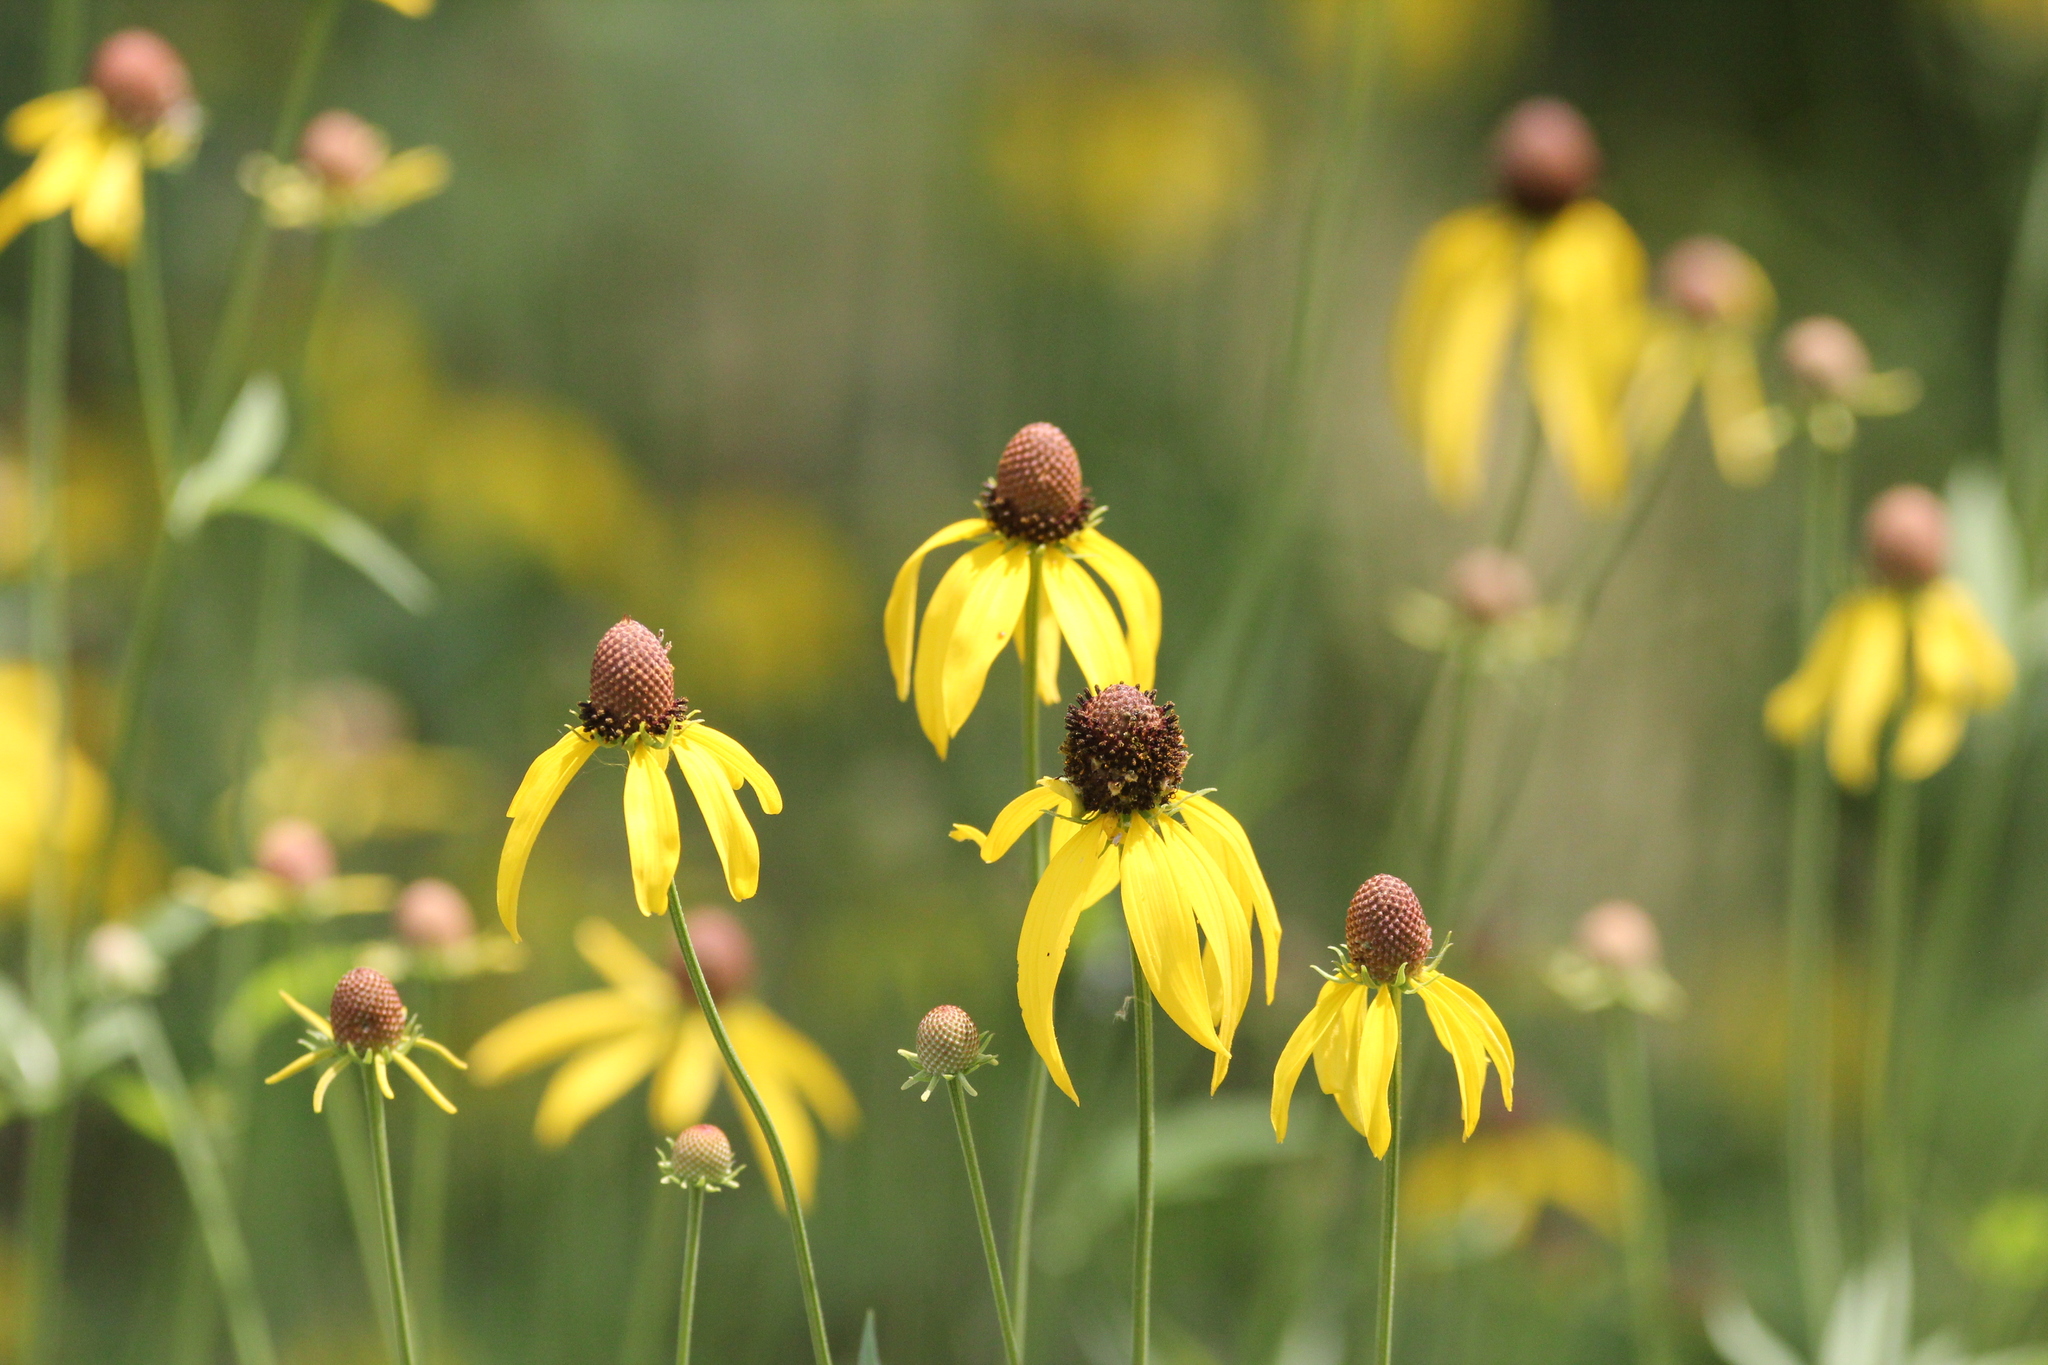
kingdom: Plantae
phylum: Tracheophyta
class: Magnoliopsida
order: Asterales
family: Asteraceae
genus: Ratibida
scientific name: Ratibida pinnata
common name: Drooping prairie-coneflower
